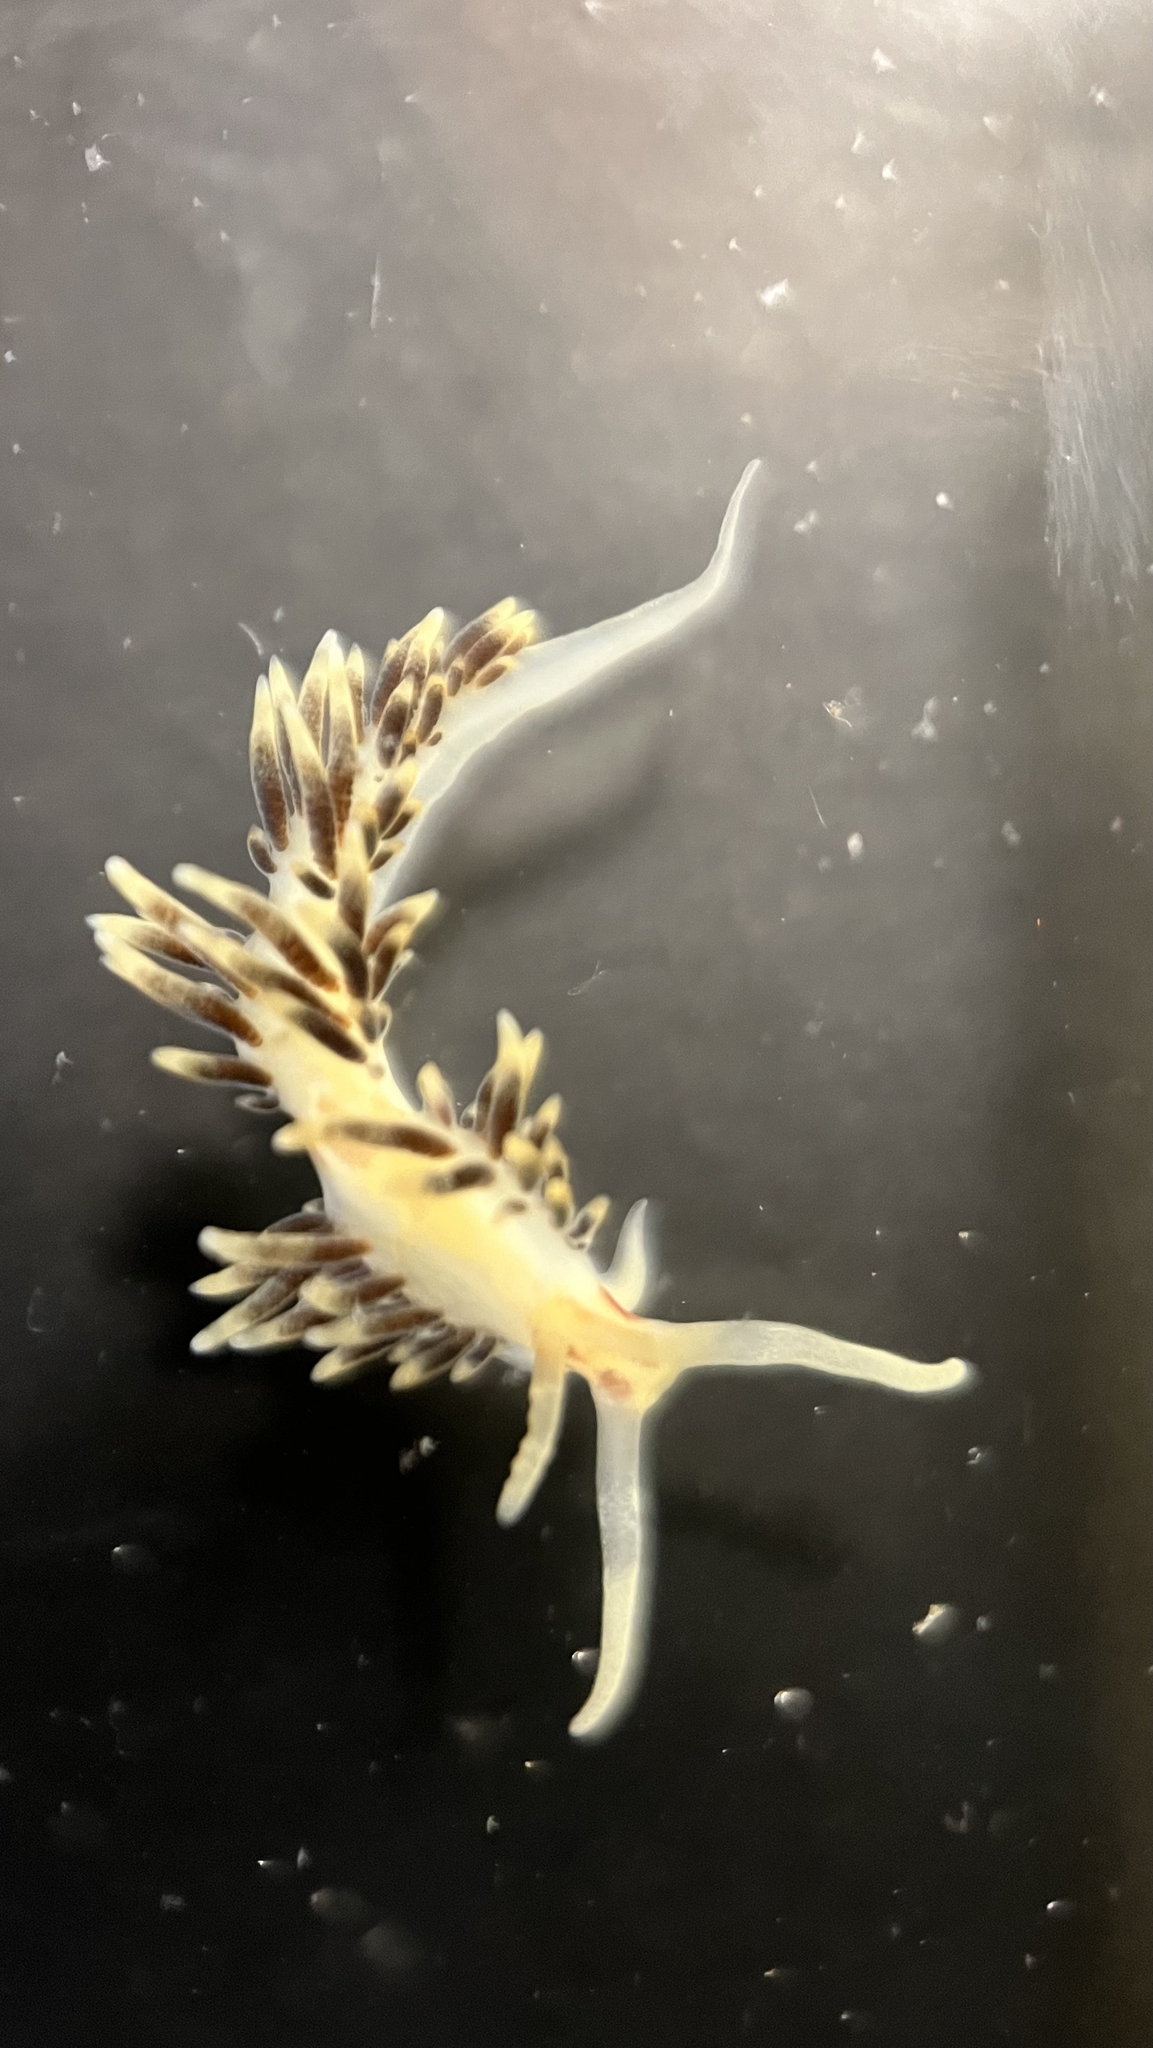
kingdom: Animalia
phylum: Mollusca
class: Gastropoda
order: Nudibranchia
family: Facelinidae
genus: Facelina
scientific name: Facelina newcombi
